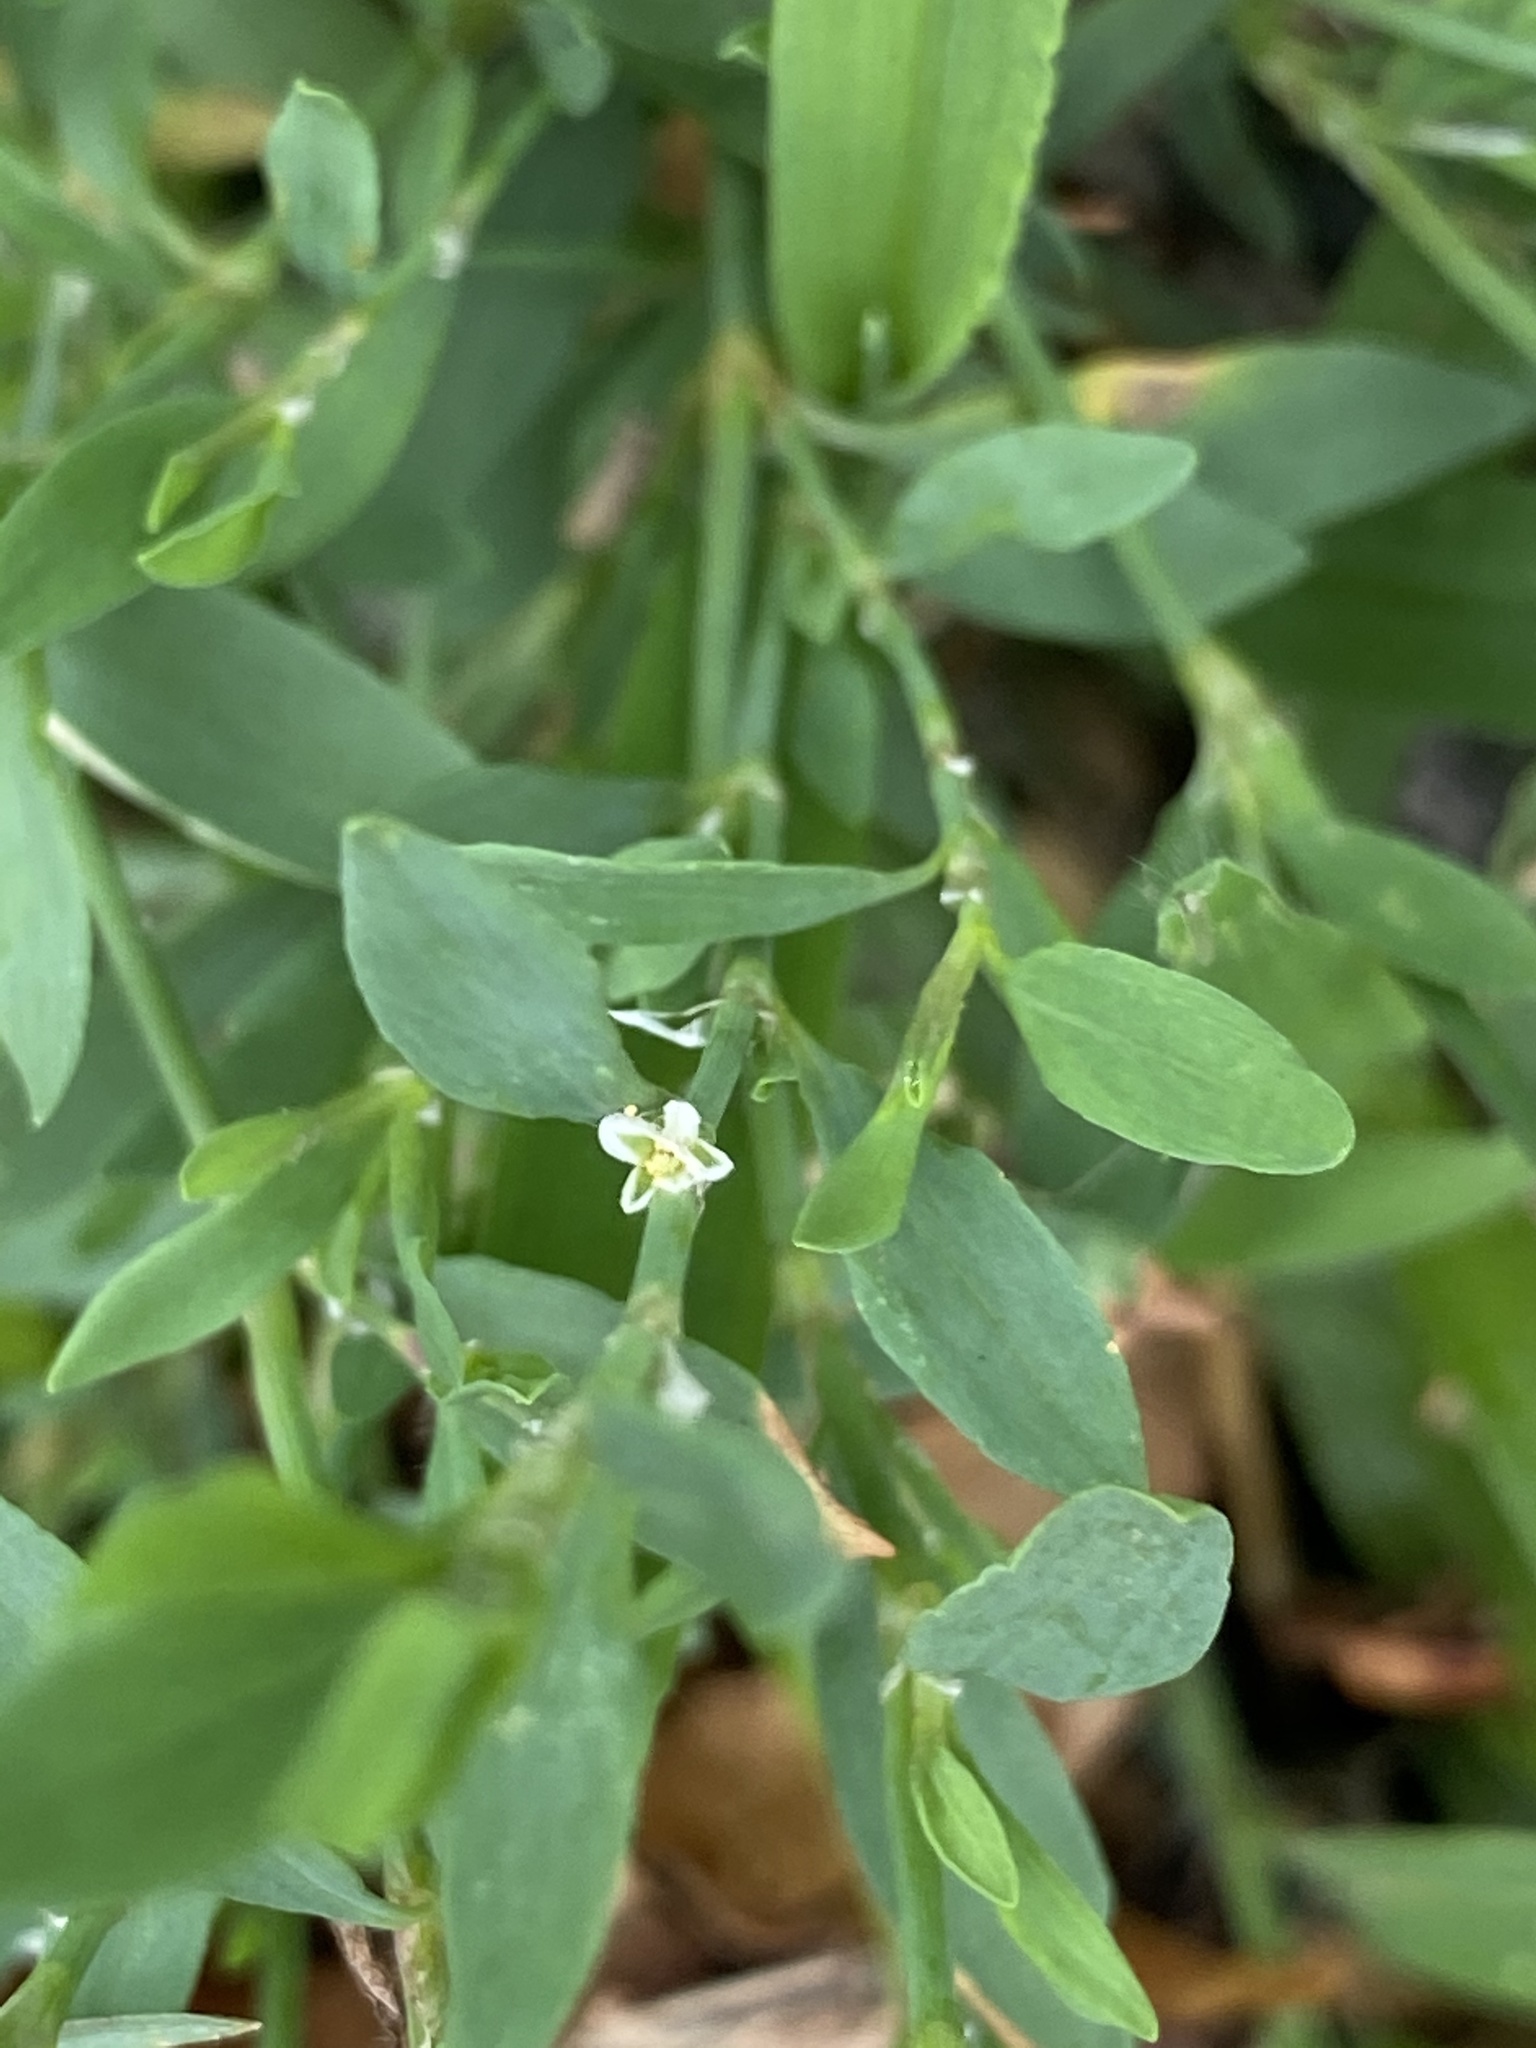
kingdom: Plantae
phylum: Tracheophyta
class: Magnoliopsida
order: Caryophyllales
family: Polygonaceae
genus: Polygonum
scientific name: Polygonum aviculare
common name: Prostrate knotweed
